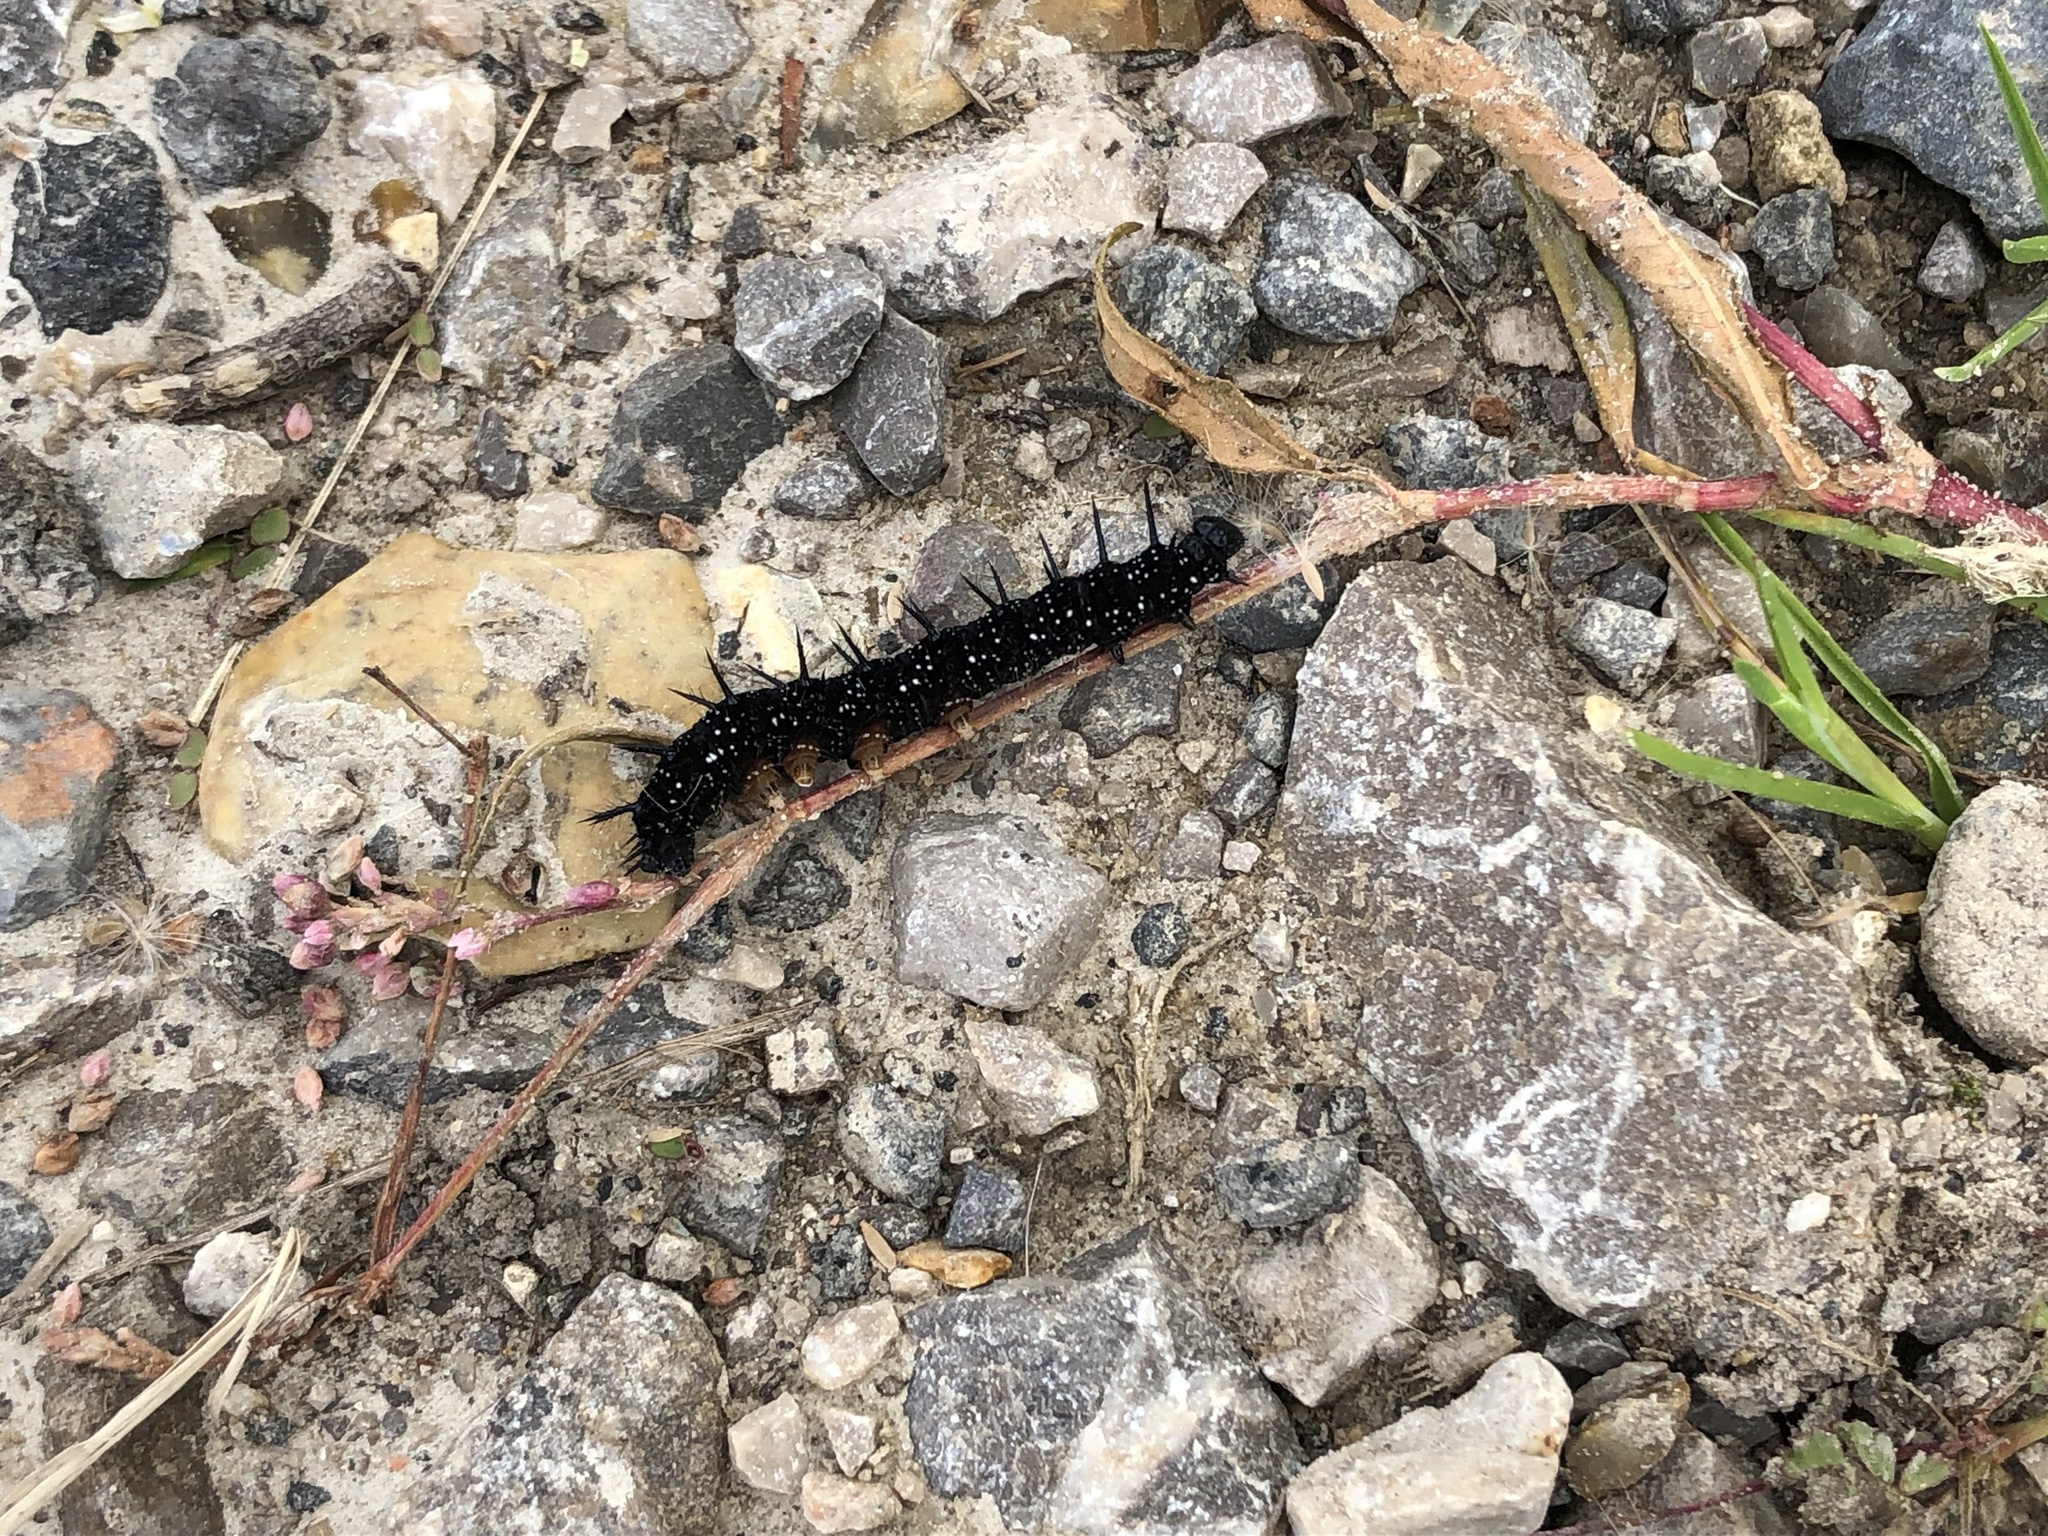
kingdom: Animalia
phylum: Arthropoda
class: Insecta
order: Lepidoptera
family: Nymphalidae
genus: Aglais
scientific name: Aglais io
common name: Peacock
